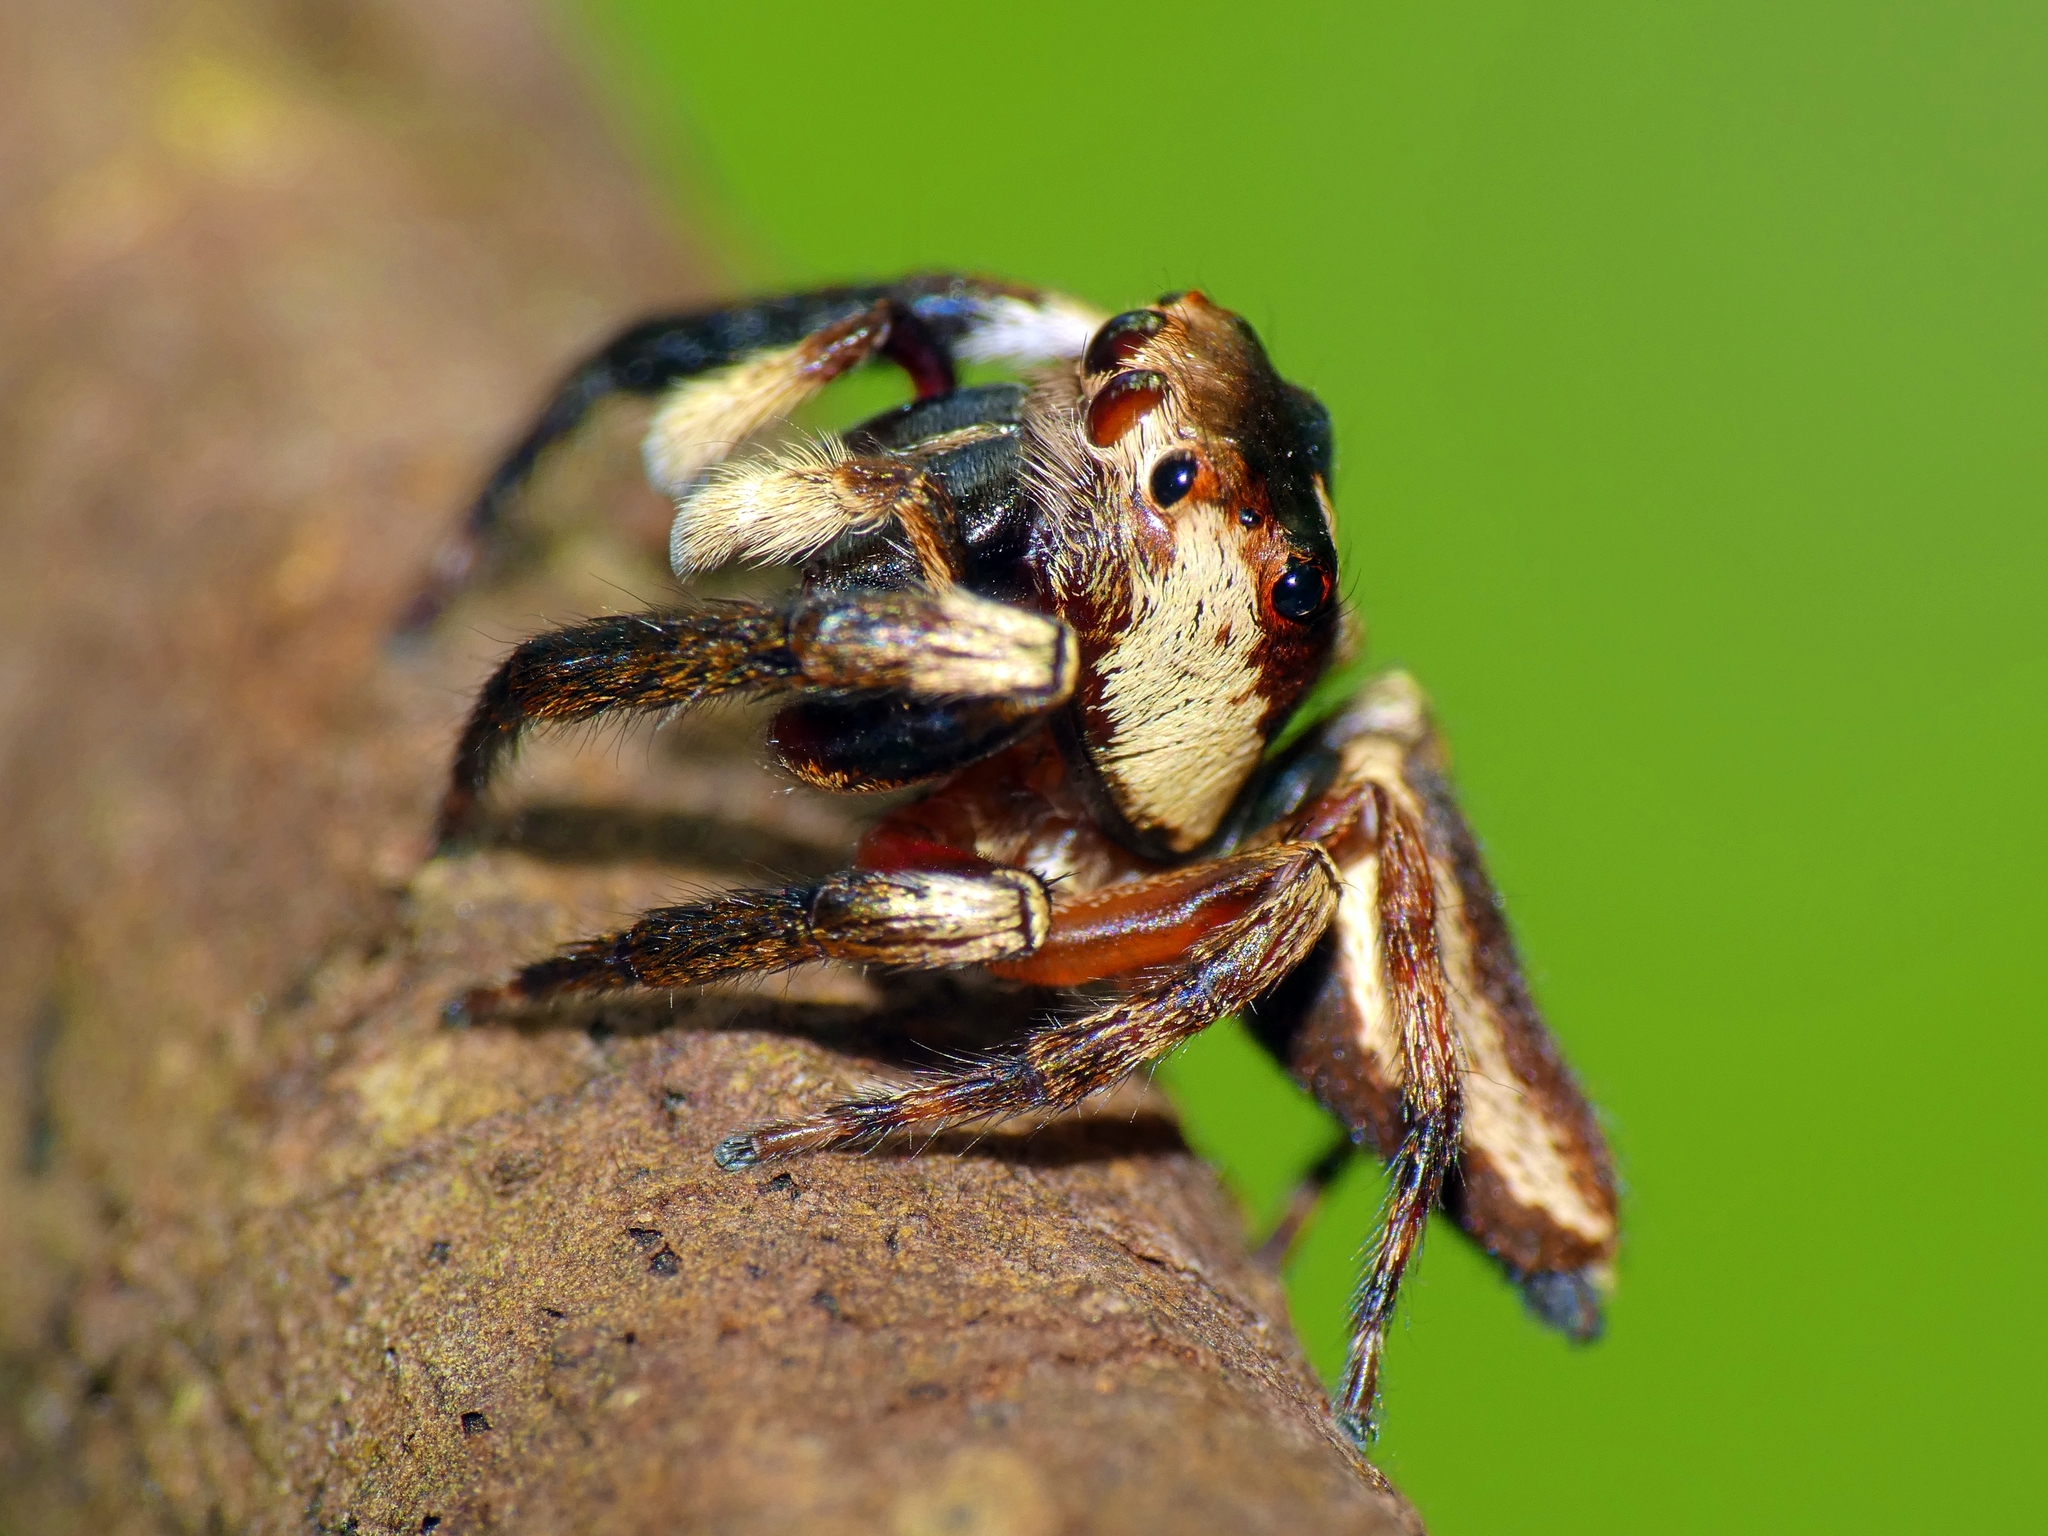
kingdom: Animalia
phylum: Arthropoda
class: Arachnida
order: Araneae
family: Salticidae
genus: Euryattus
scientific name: Euryattus wallacei
